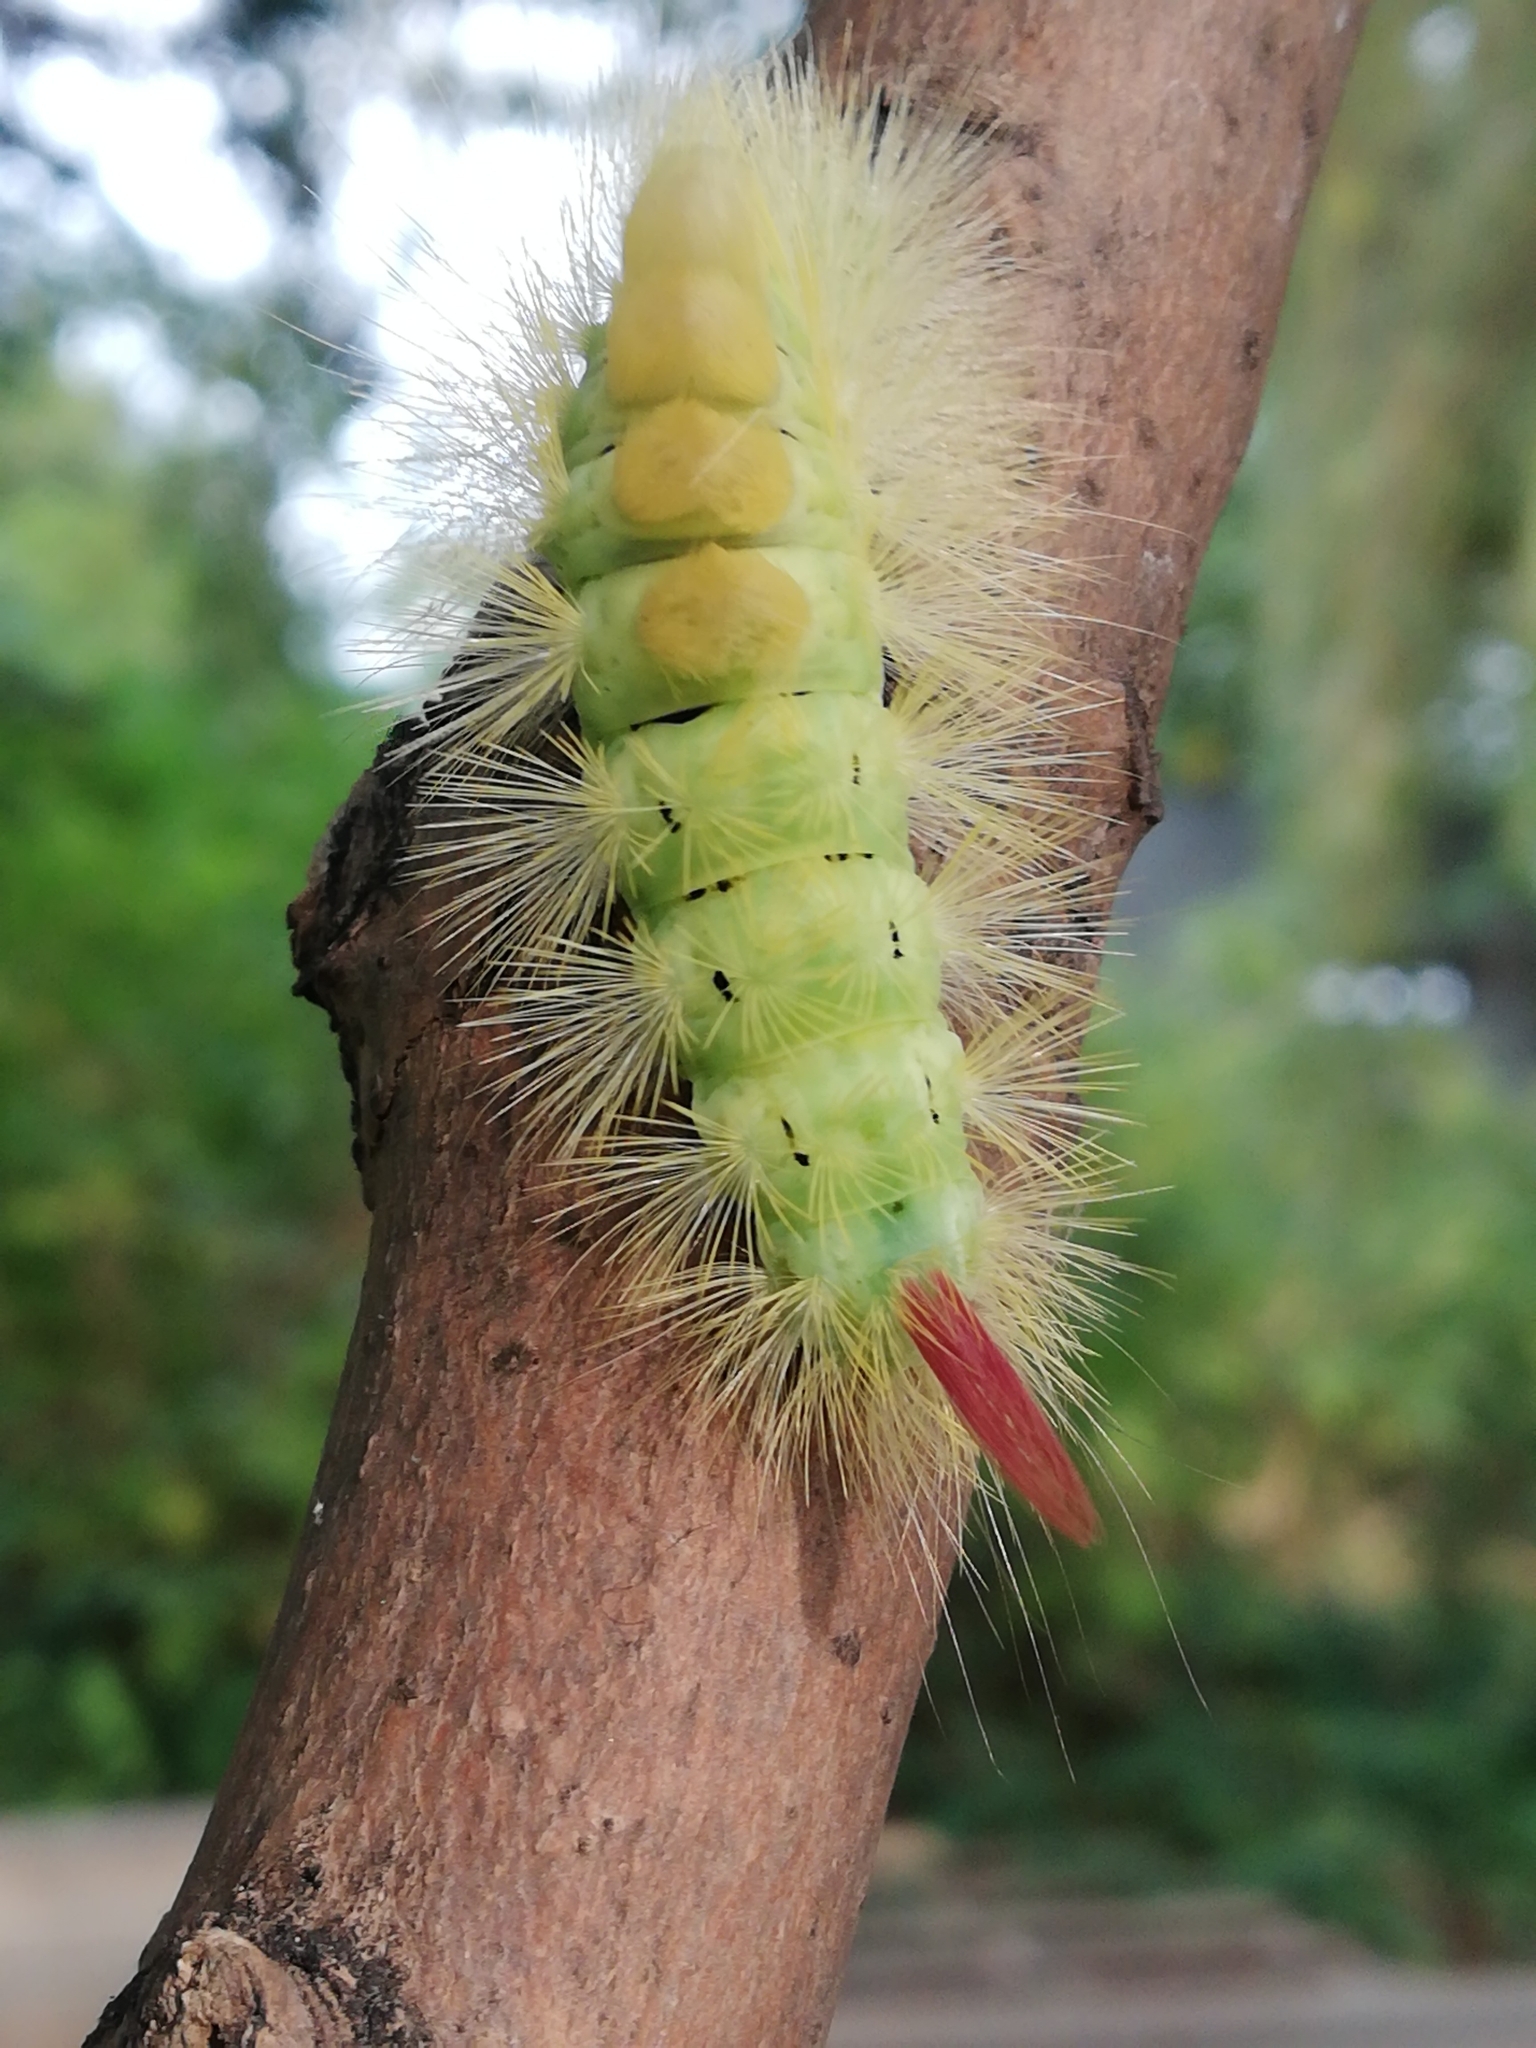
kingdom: Animalia
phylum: Arthropoda
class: Insecta
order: Lepidoptera
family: Erebidae
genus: Calliteara
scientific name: Calliteara pudibunda
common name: Pale tussock
